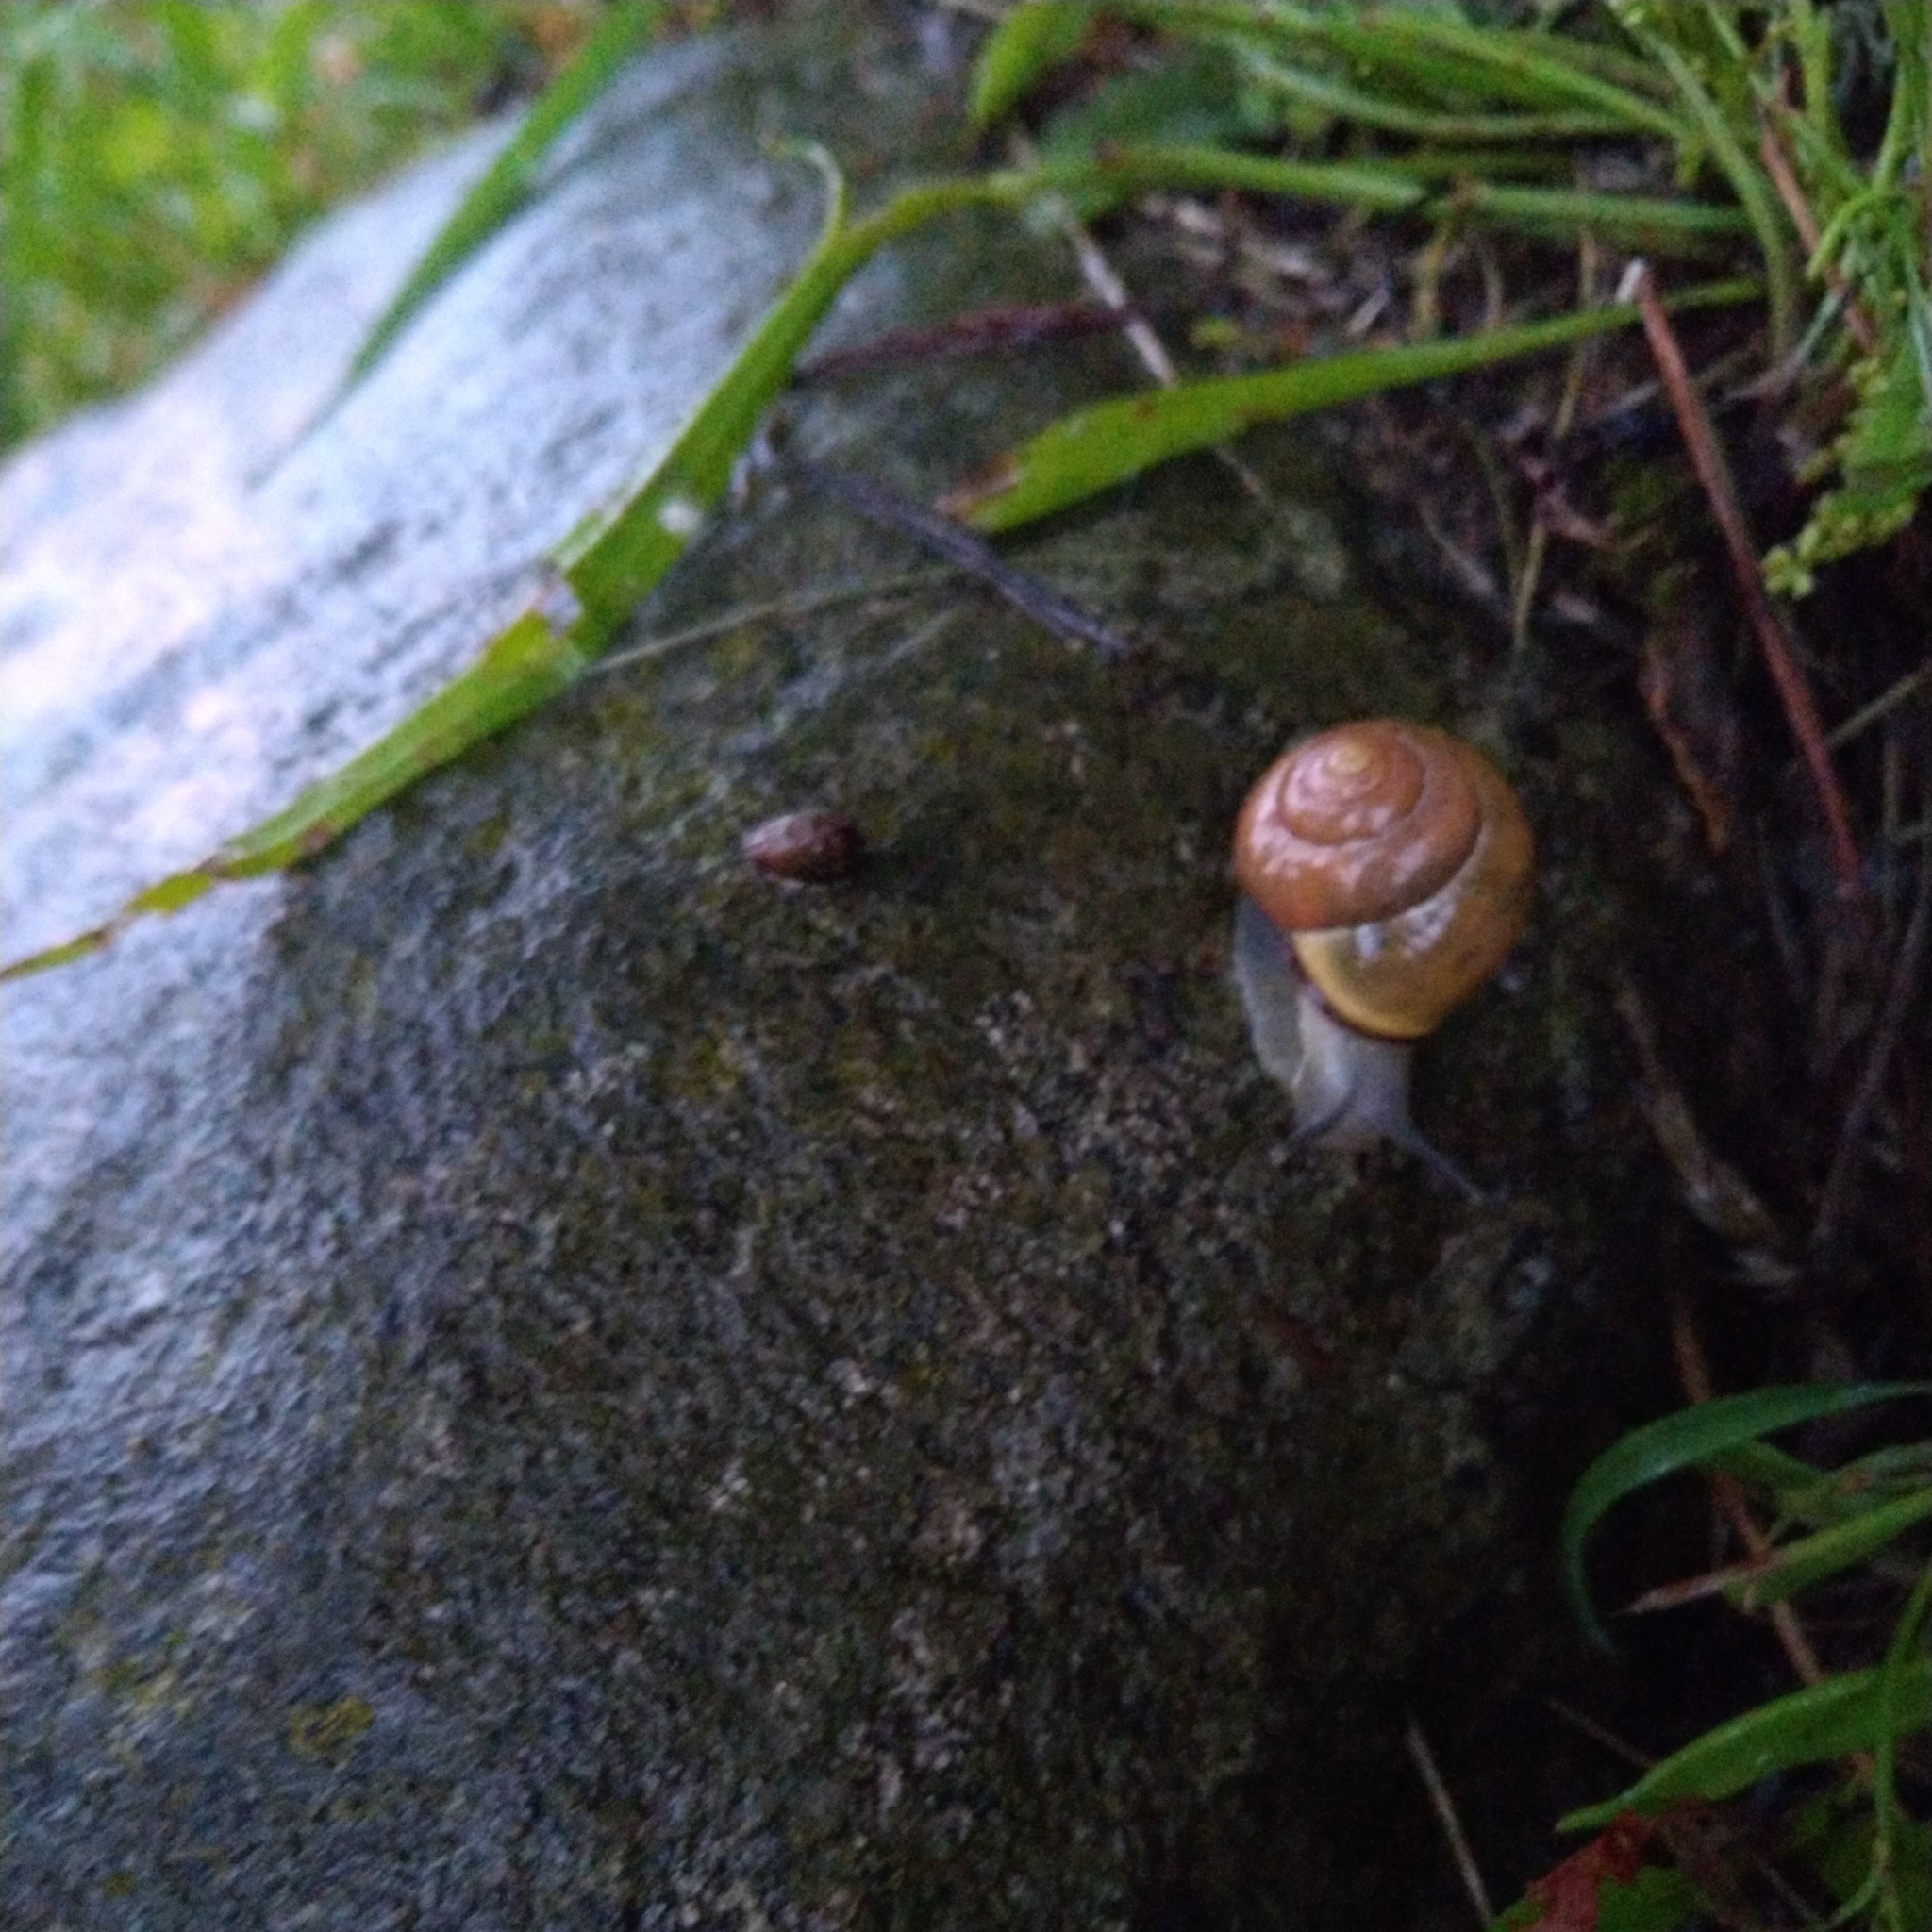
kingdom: Animalia
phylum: Mollusca
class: Gastropoda
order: Stylommatophora
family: Helicidae
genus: Cepaea
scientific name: Cepaea nemoralis
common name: Grovesnail
